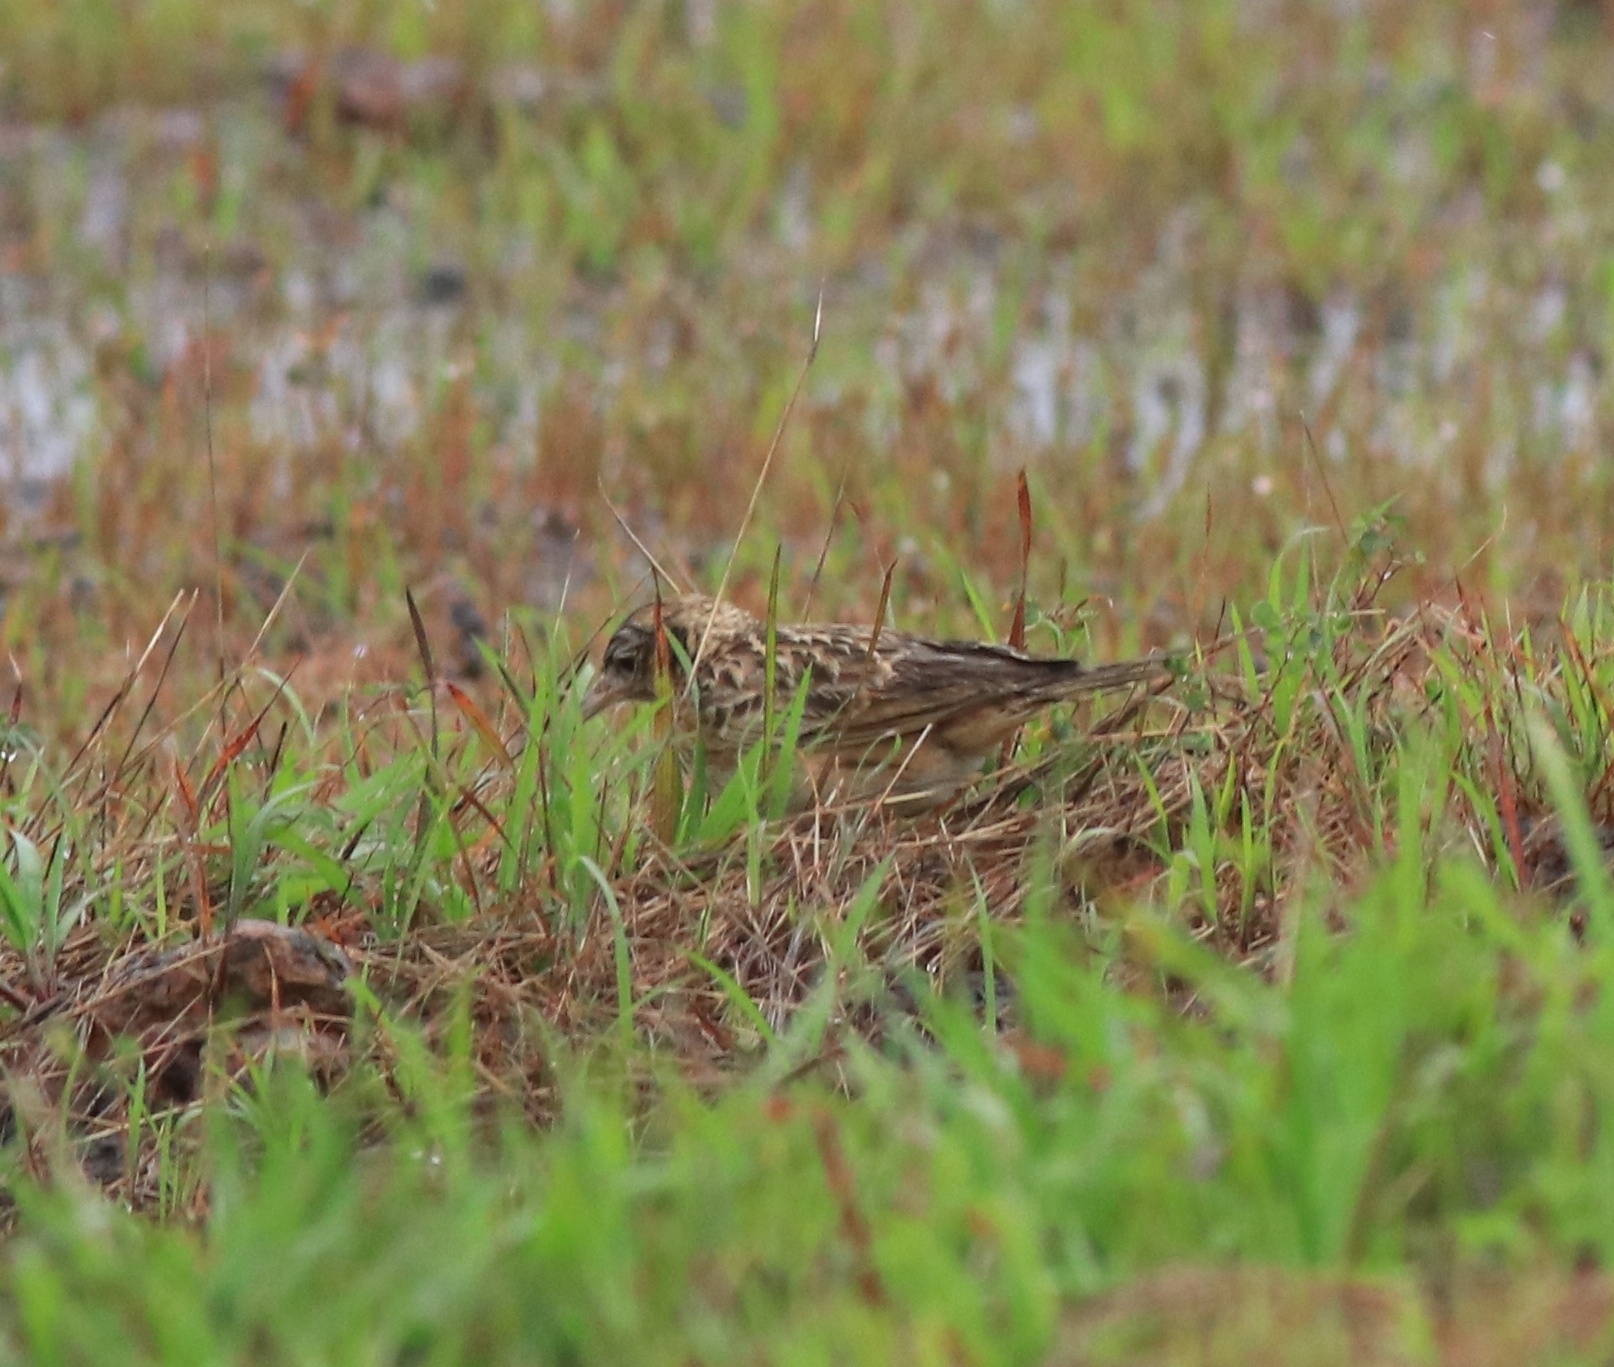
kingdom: Animalia
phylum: Chordata
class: Aves
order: Passeriformes
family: Alaudidae
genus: Alauda
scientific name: Alauda gulgula
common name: Oriental skylark
